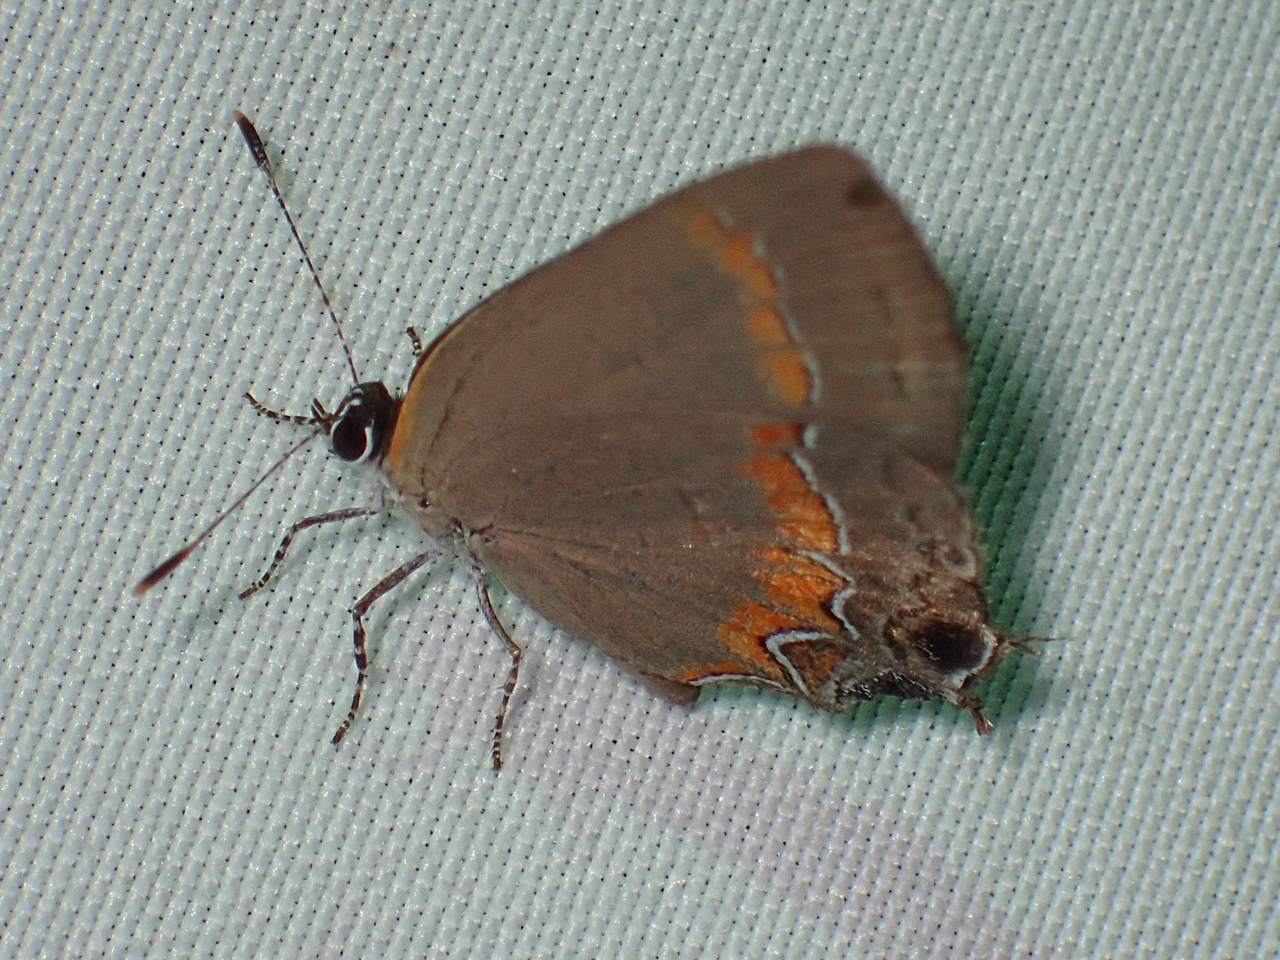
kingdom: Animalia
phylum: Arthropoda
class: Insecta
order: Lepidoptera
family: Lycaenidae
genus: Calycopis
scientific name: Calycopis cecrops
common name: Red-banded hairstreak
